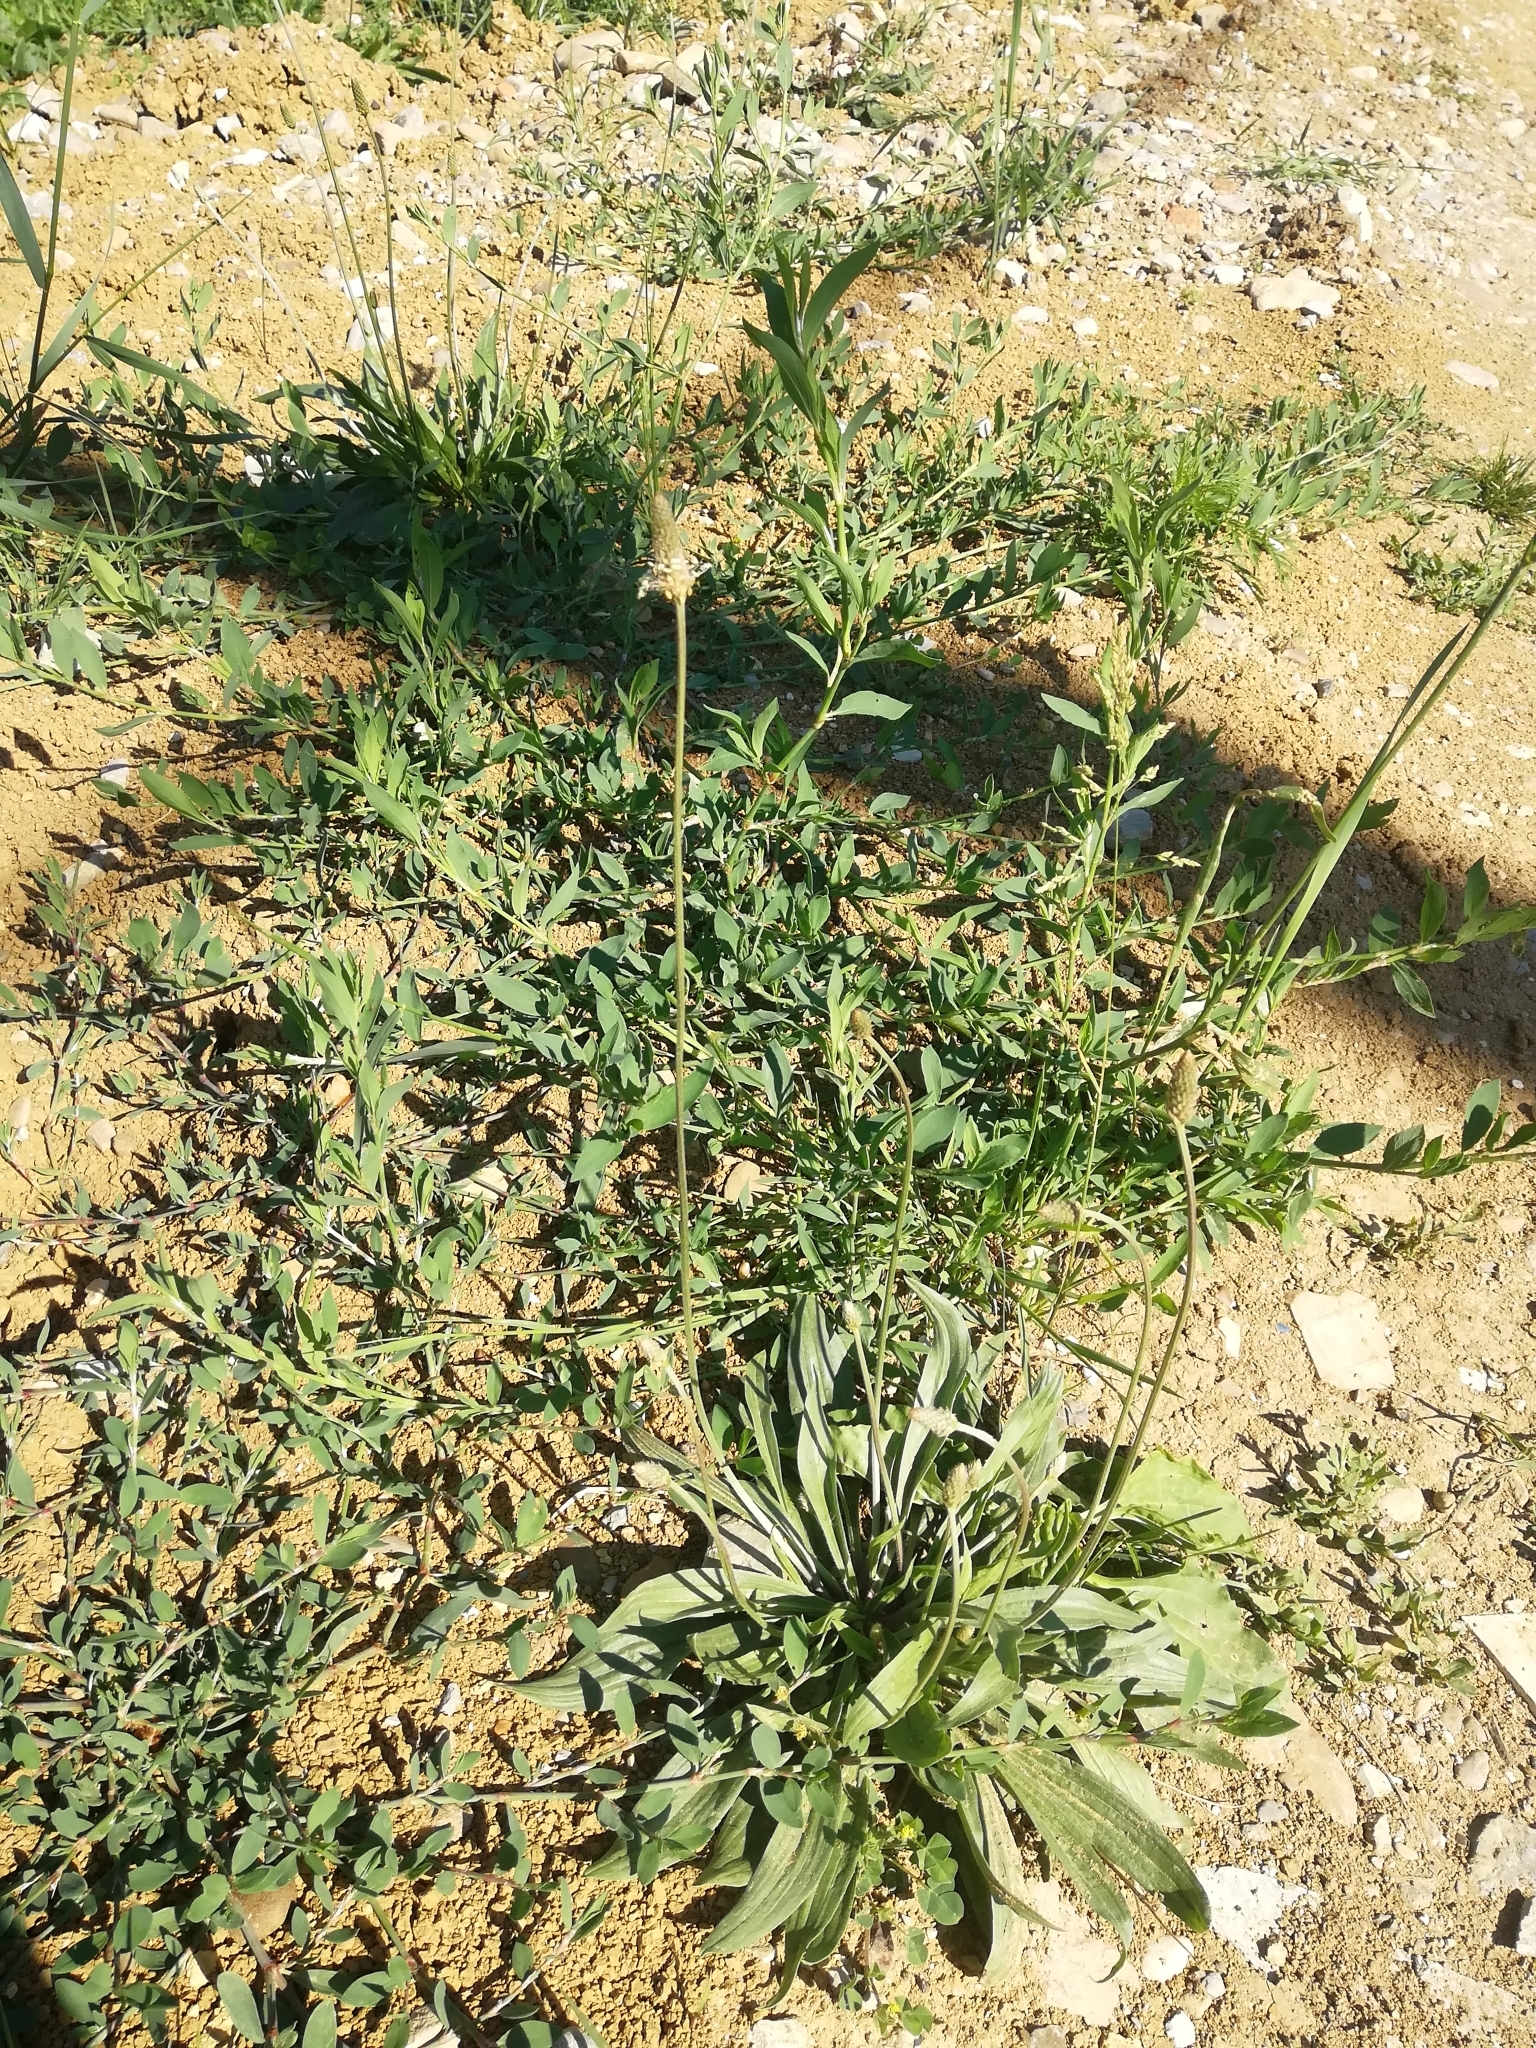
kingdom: Plantae
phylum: Tracheophyta
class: Magnoliopsida
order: Lamiales
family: Plantaginaceae
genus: Plantago
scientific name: Plantago lanceolata
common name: Ribwort plantain
